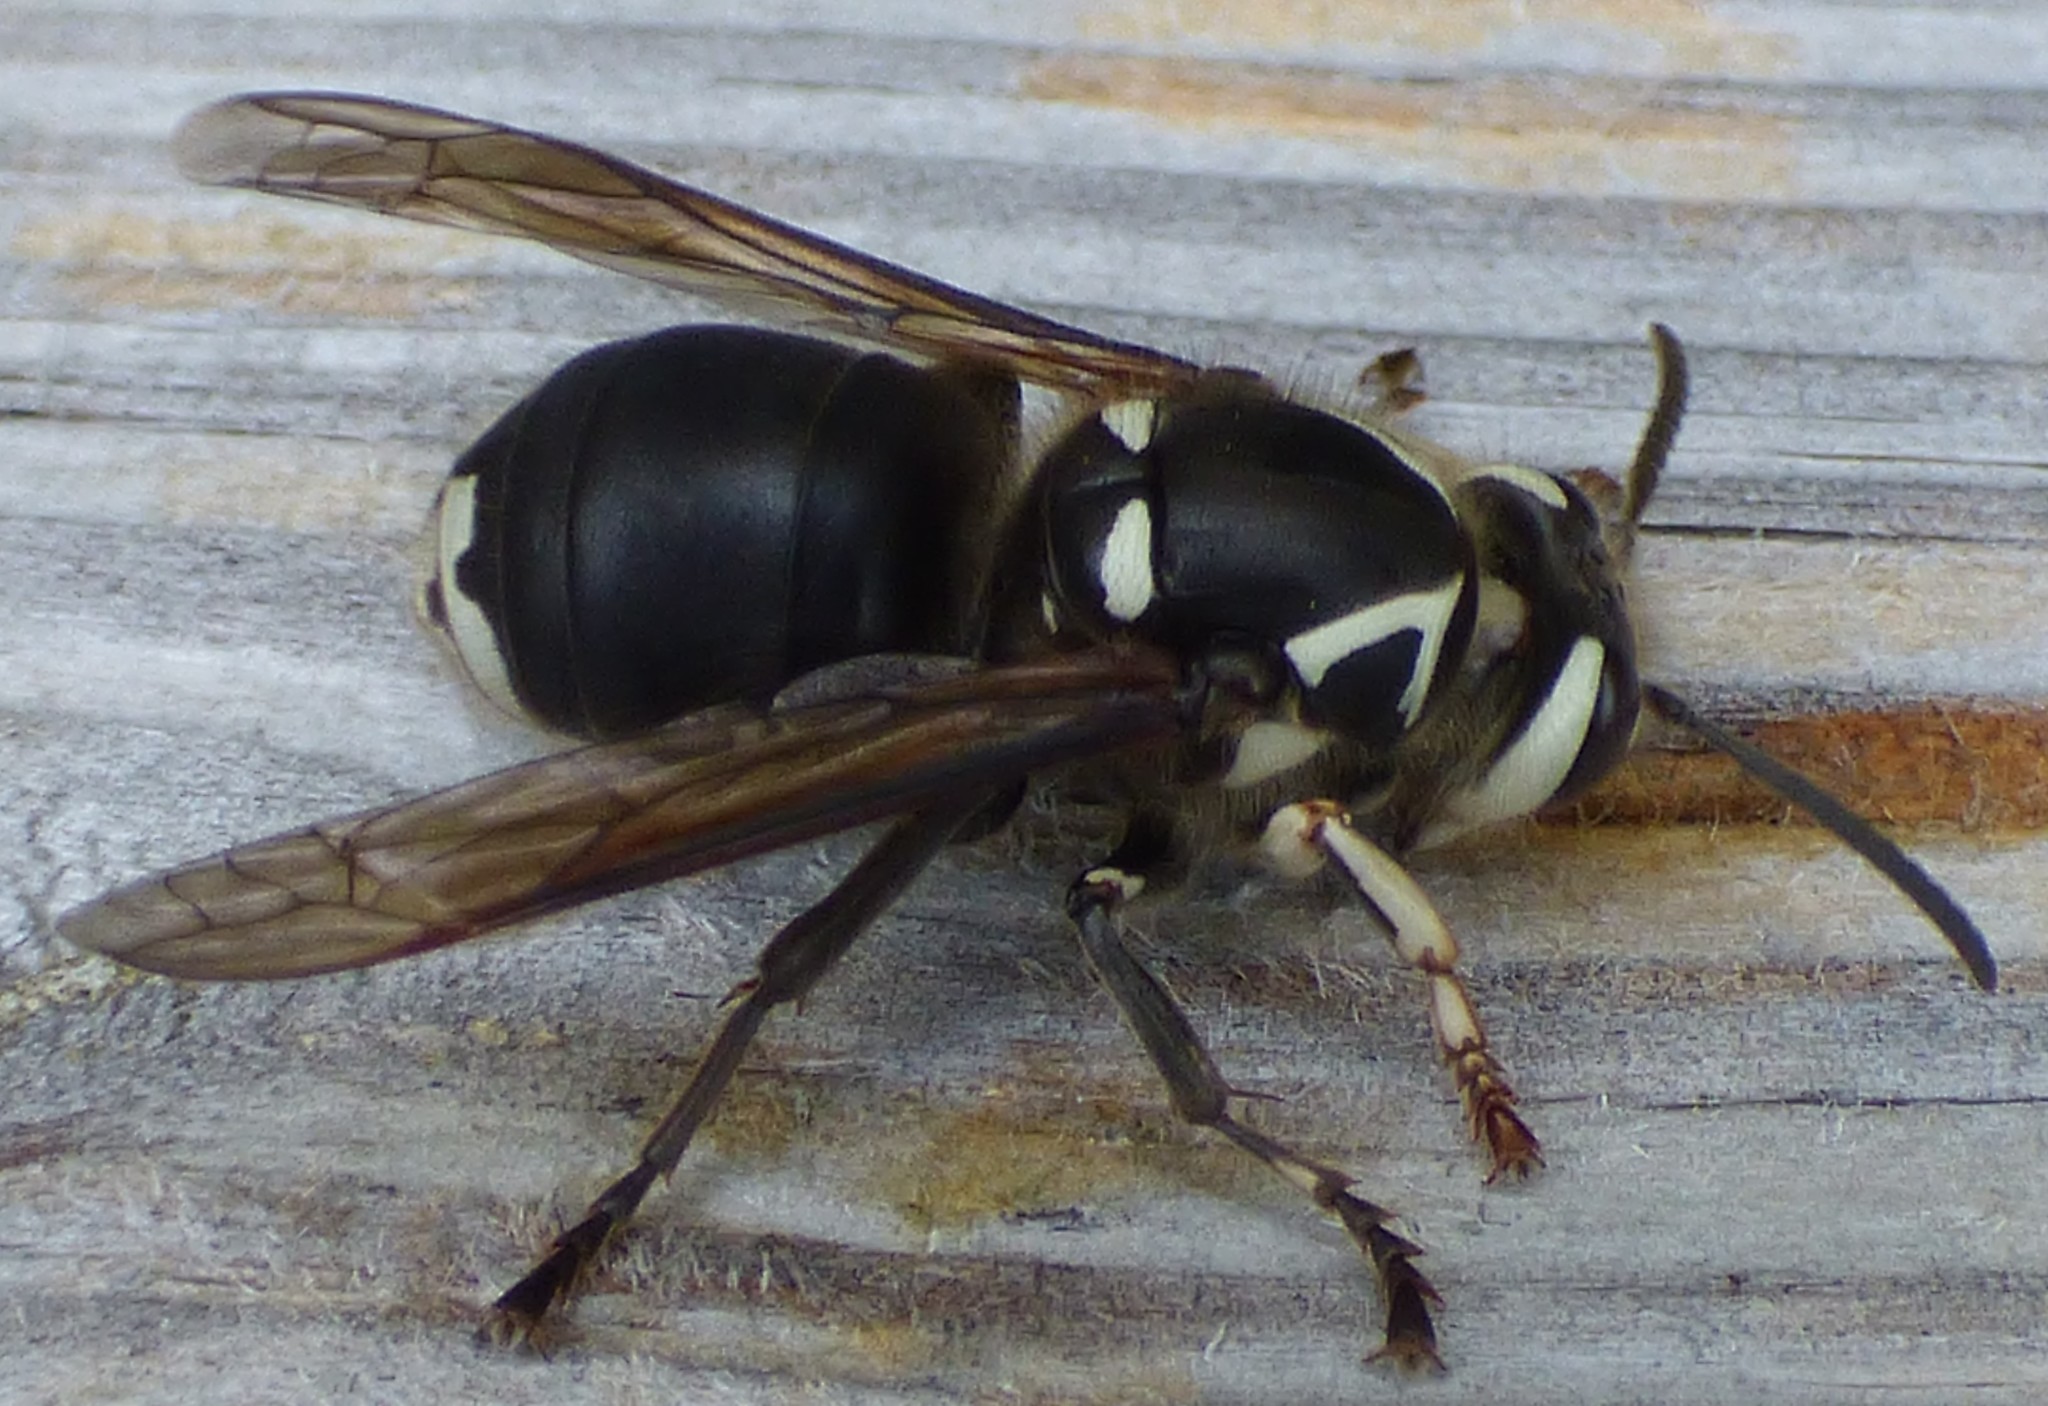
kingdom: Animalia
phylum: Arthropoda
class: Insecta
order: Hymenoptera
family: Vespidae
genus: Dolichovespula
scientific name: Dolichovespula maculata
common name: Bald-faced hornet
